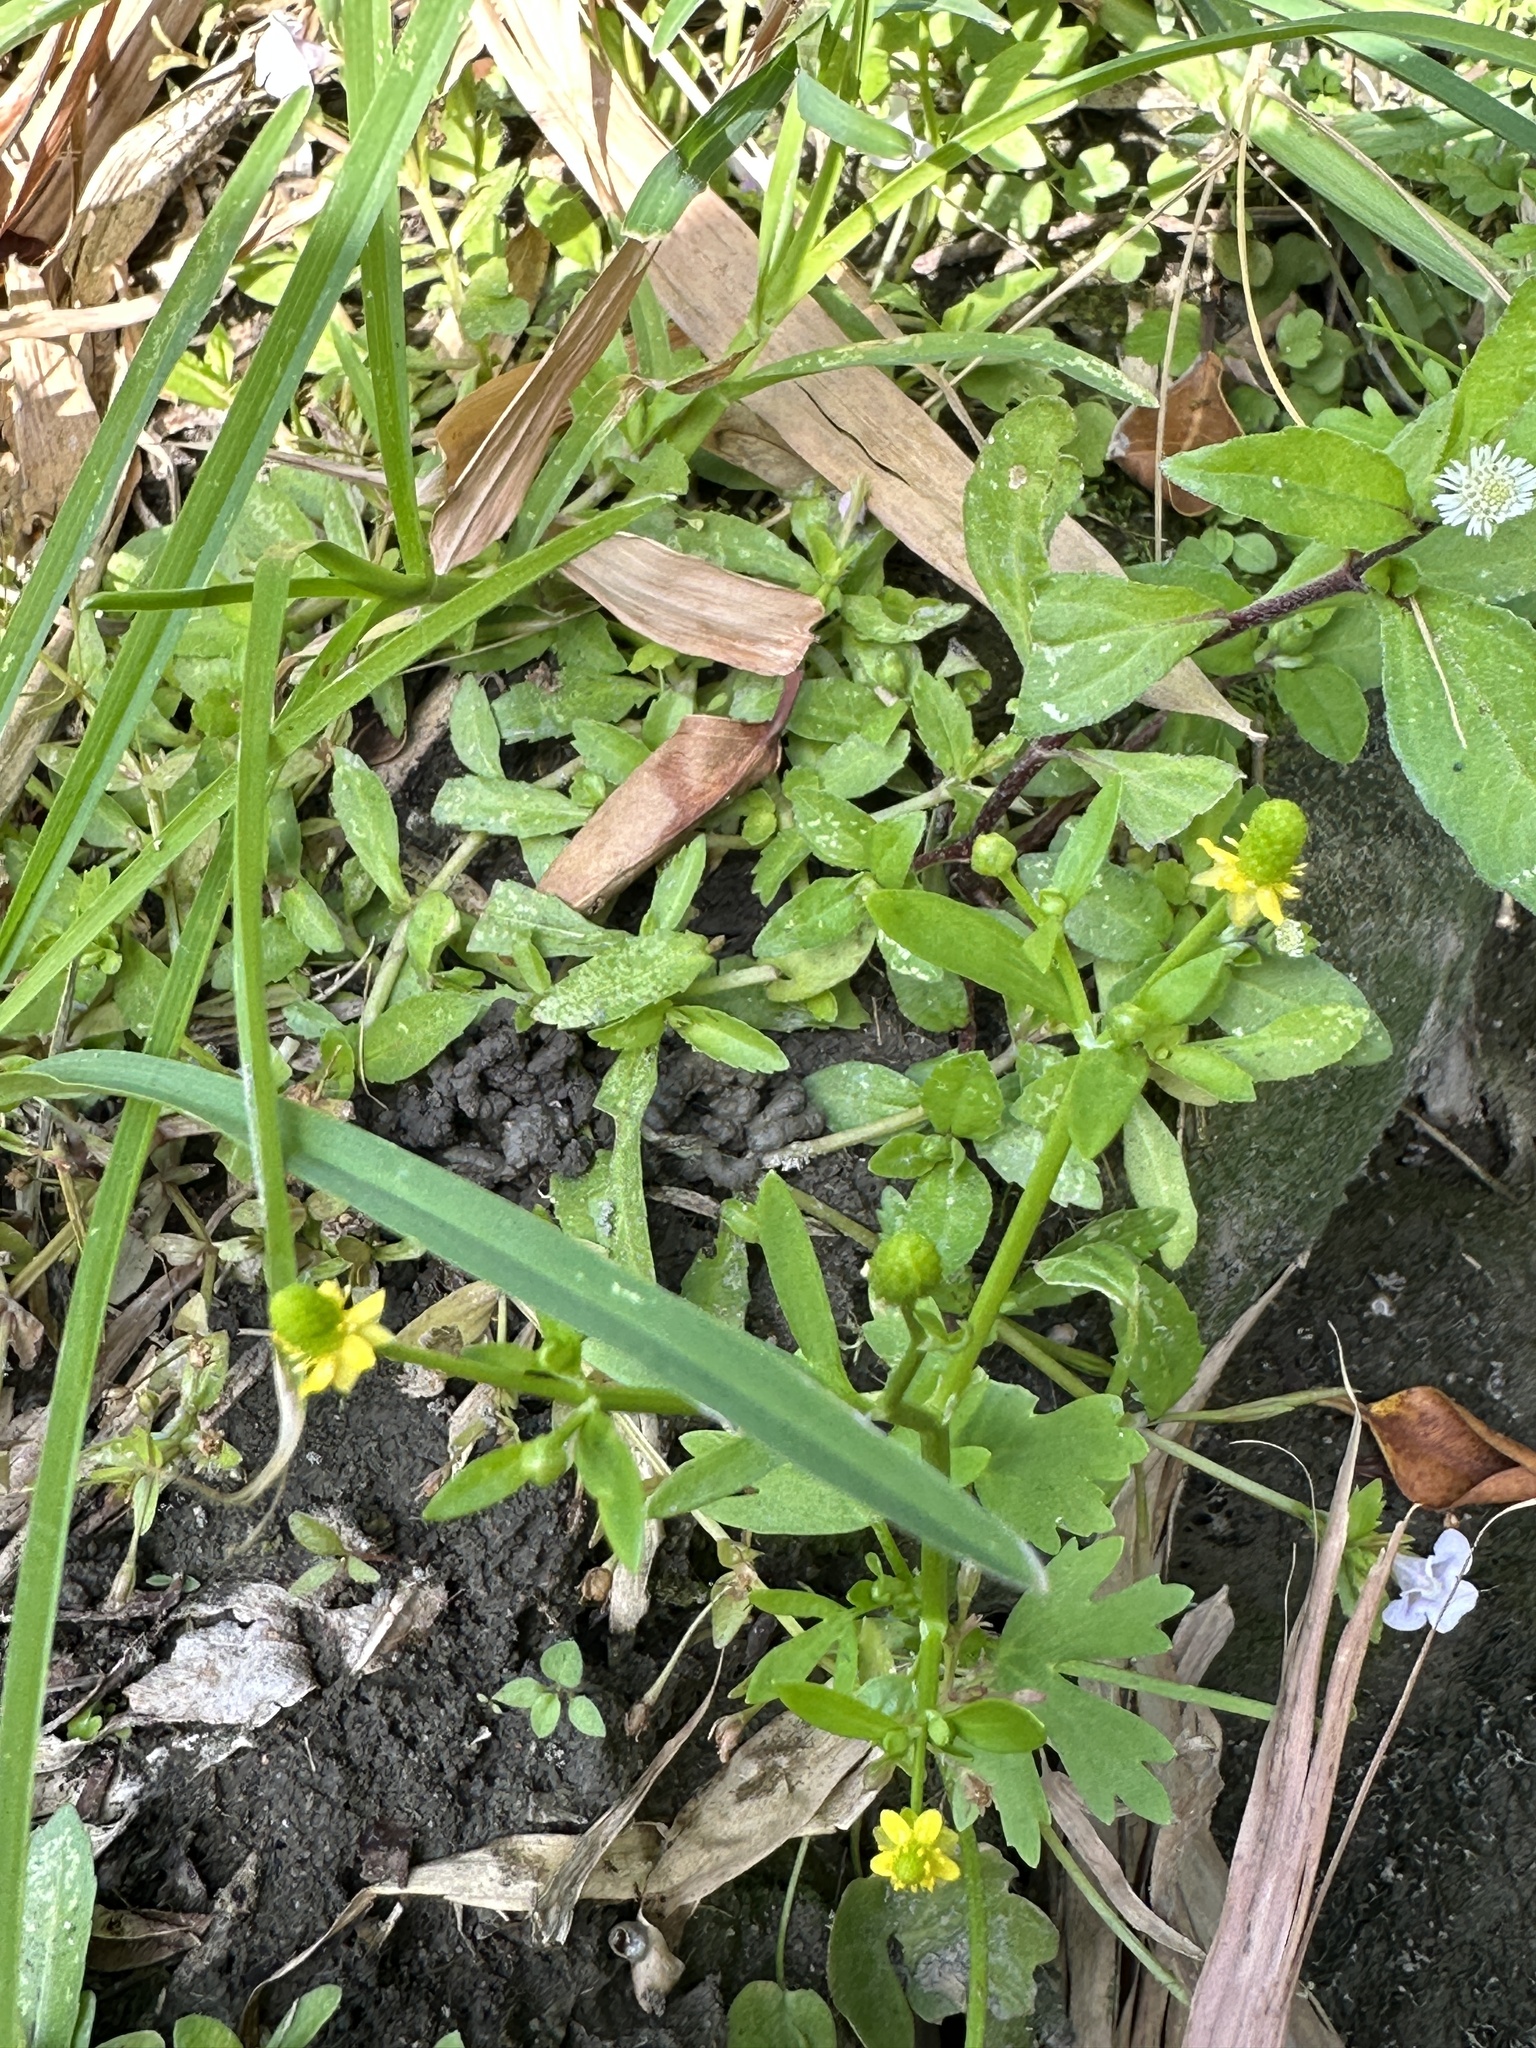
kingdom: Plantae
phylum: Tracheophyta
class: Magnoliopsida
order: Ranunculales
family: Ranunculaceae
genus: Ranunculus
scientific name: Ranunculus sceleratus
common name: Celery-leaved buttercup
